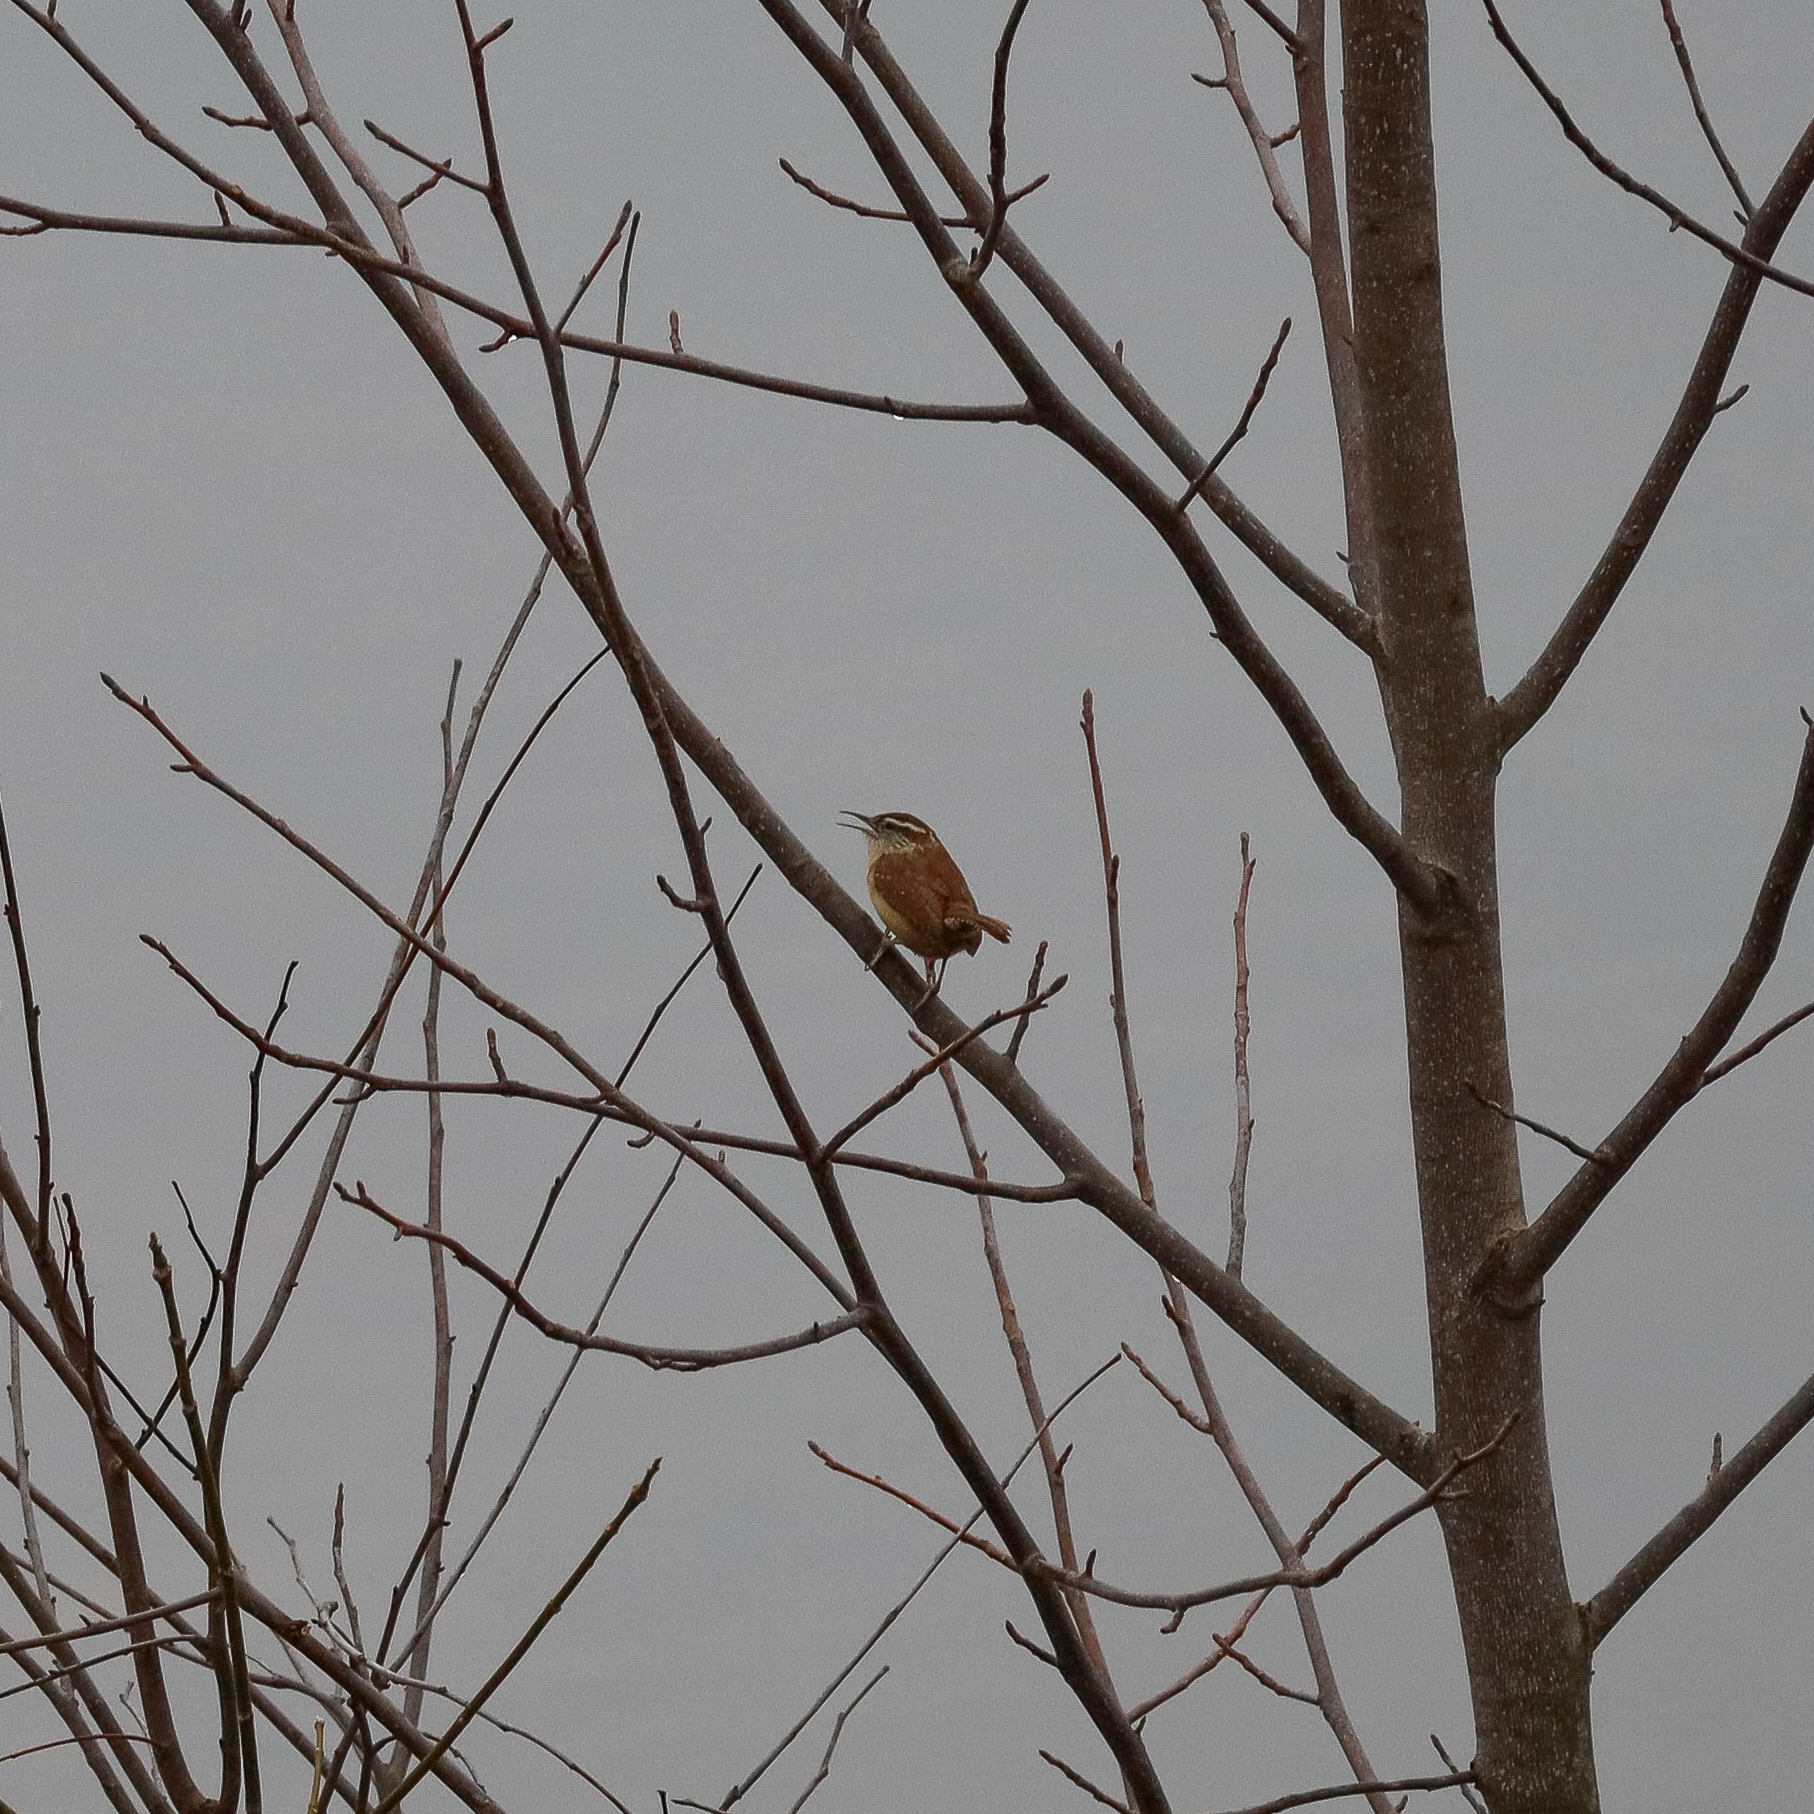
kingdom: Animalia
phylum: Chordata
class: Aves
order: Passeriformes
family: Troglodytidae
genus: Thryothorus
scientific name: Thryothorus ludovicianus
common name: Carolina wren
